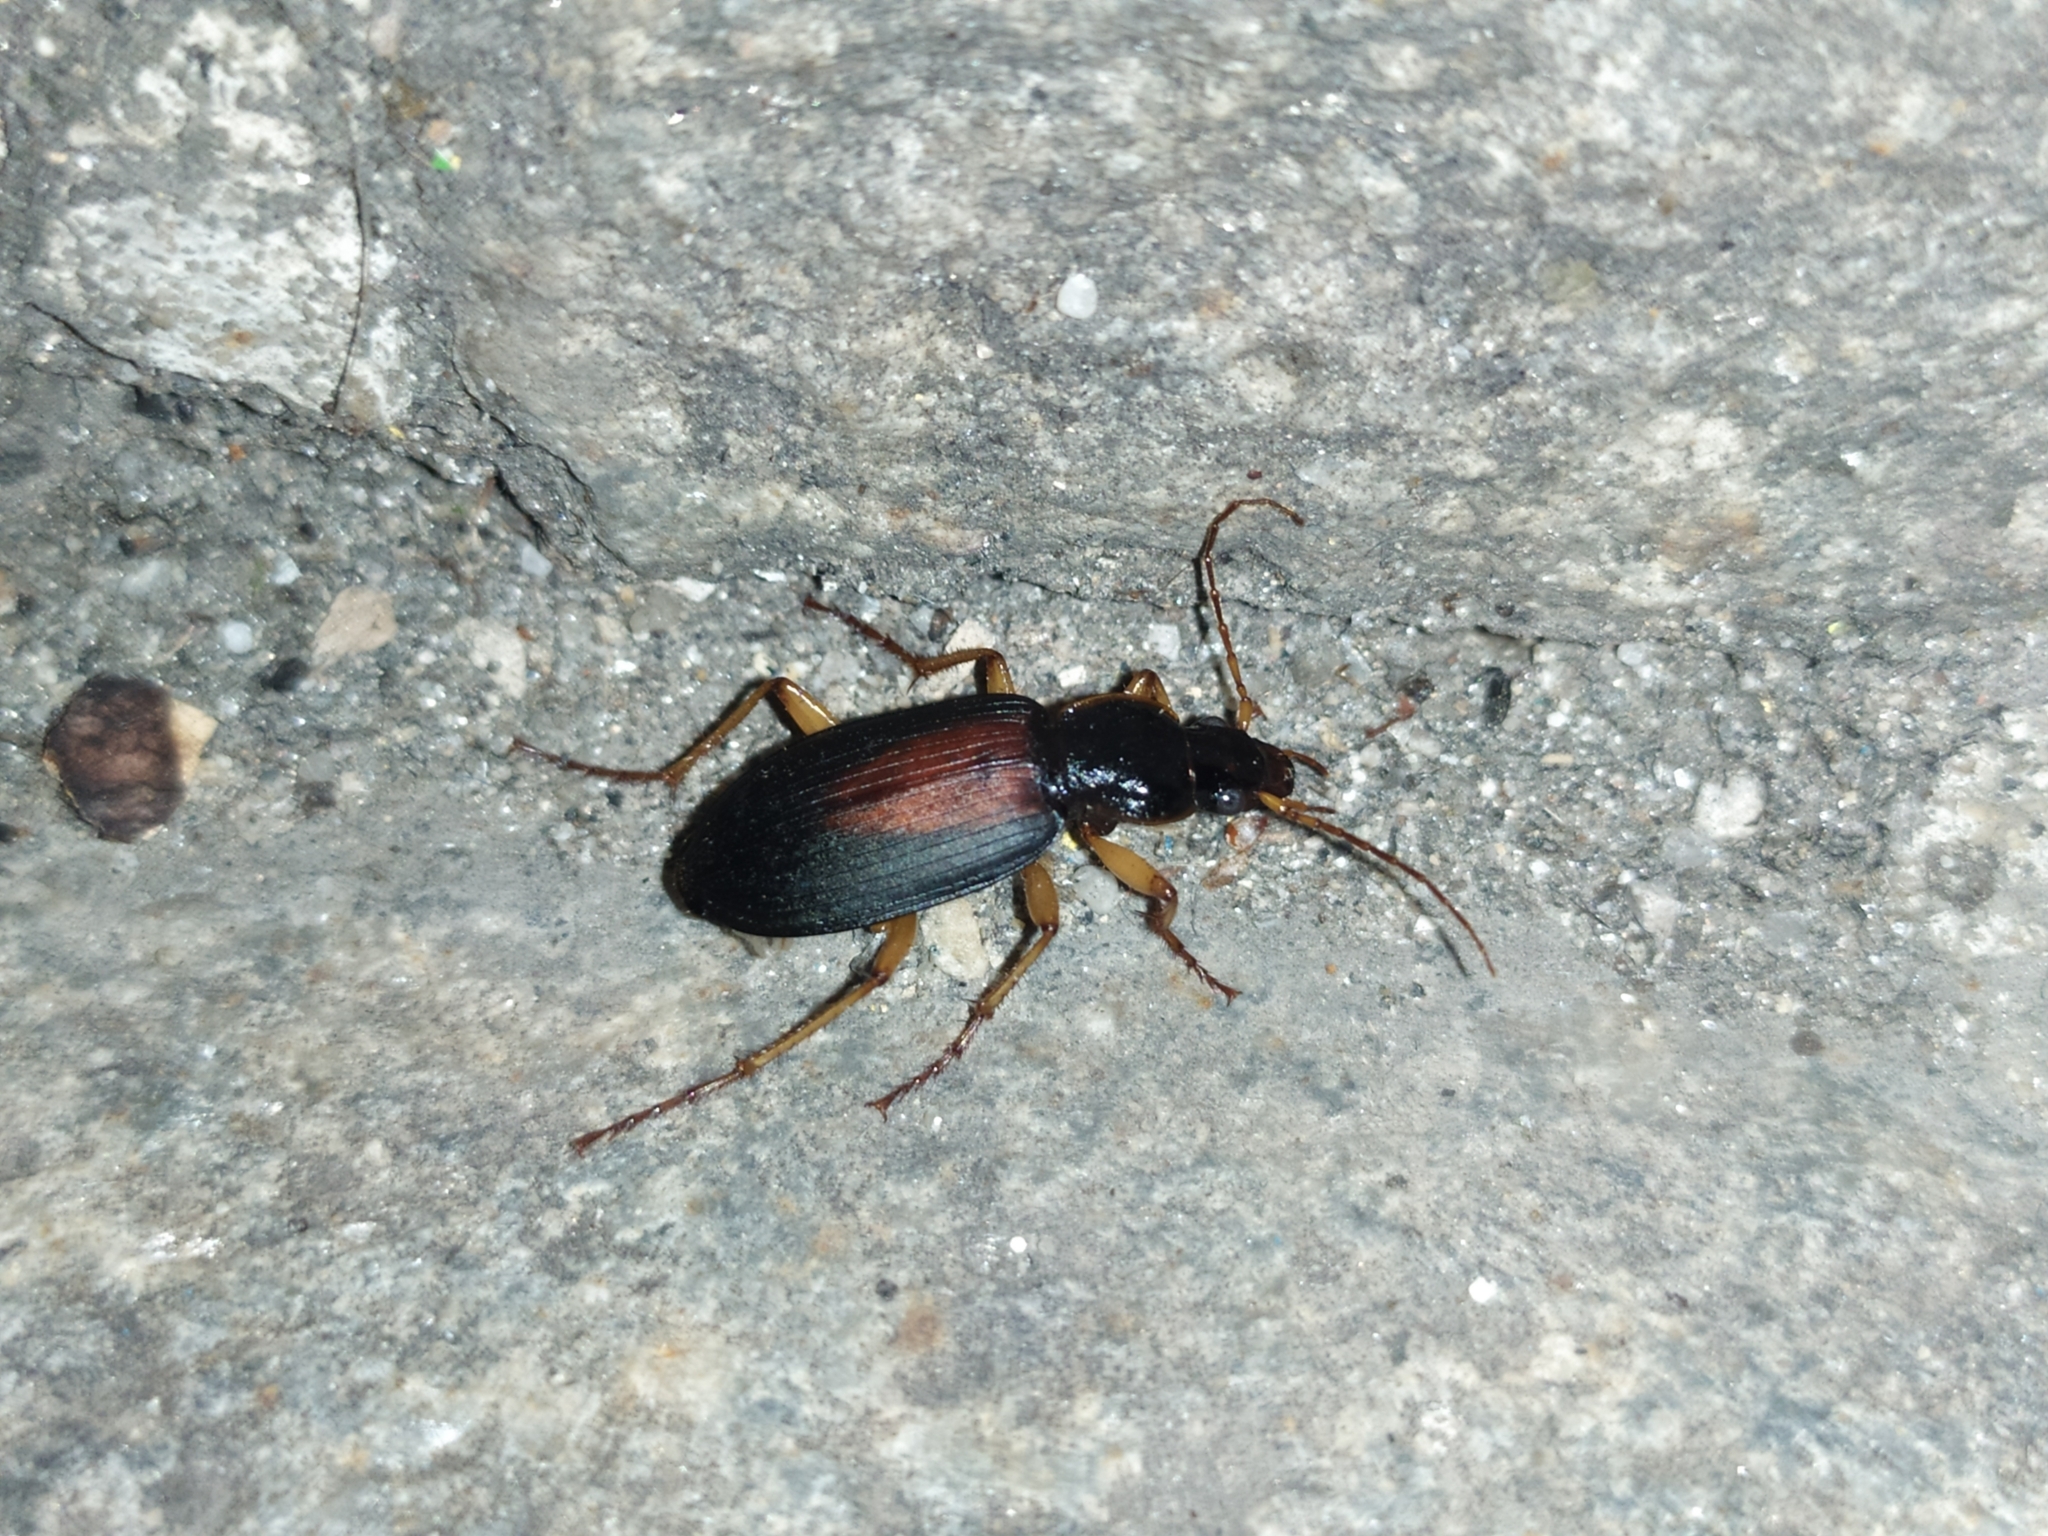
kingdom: Animalia
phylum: Arthropoda
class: Insecta
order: Coleoptera
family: Carabidae
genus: Dolichus
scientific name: Dolichus halensis
